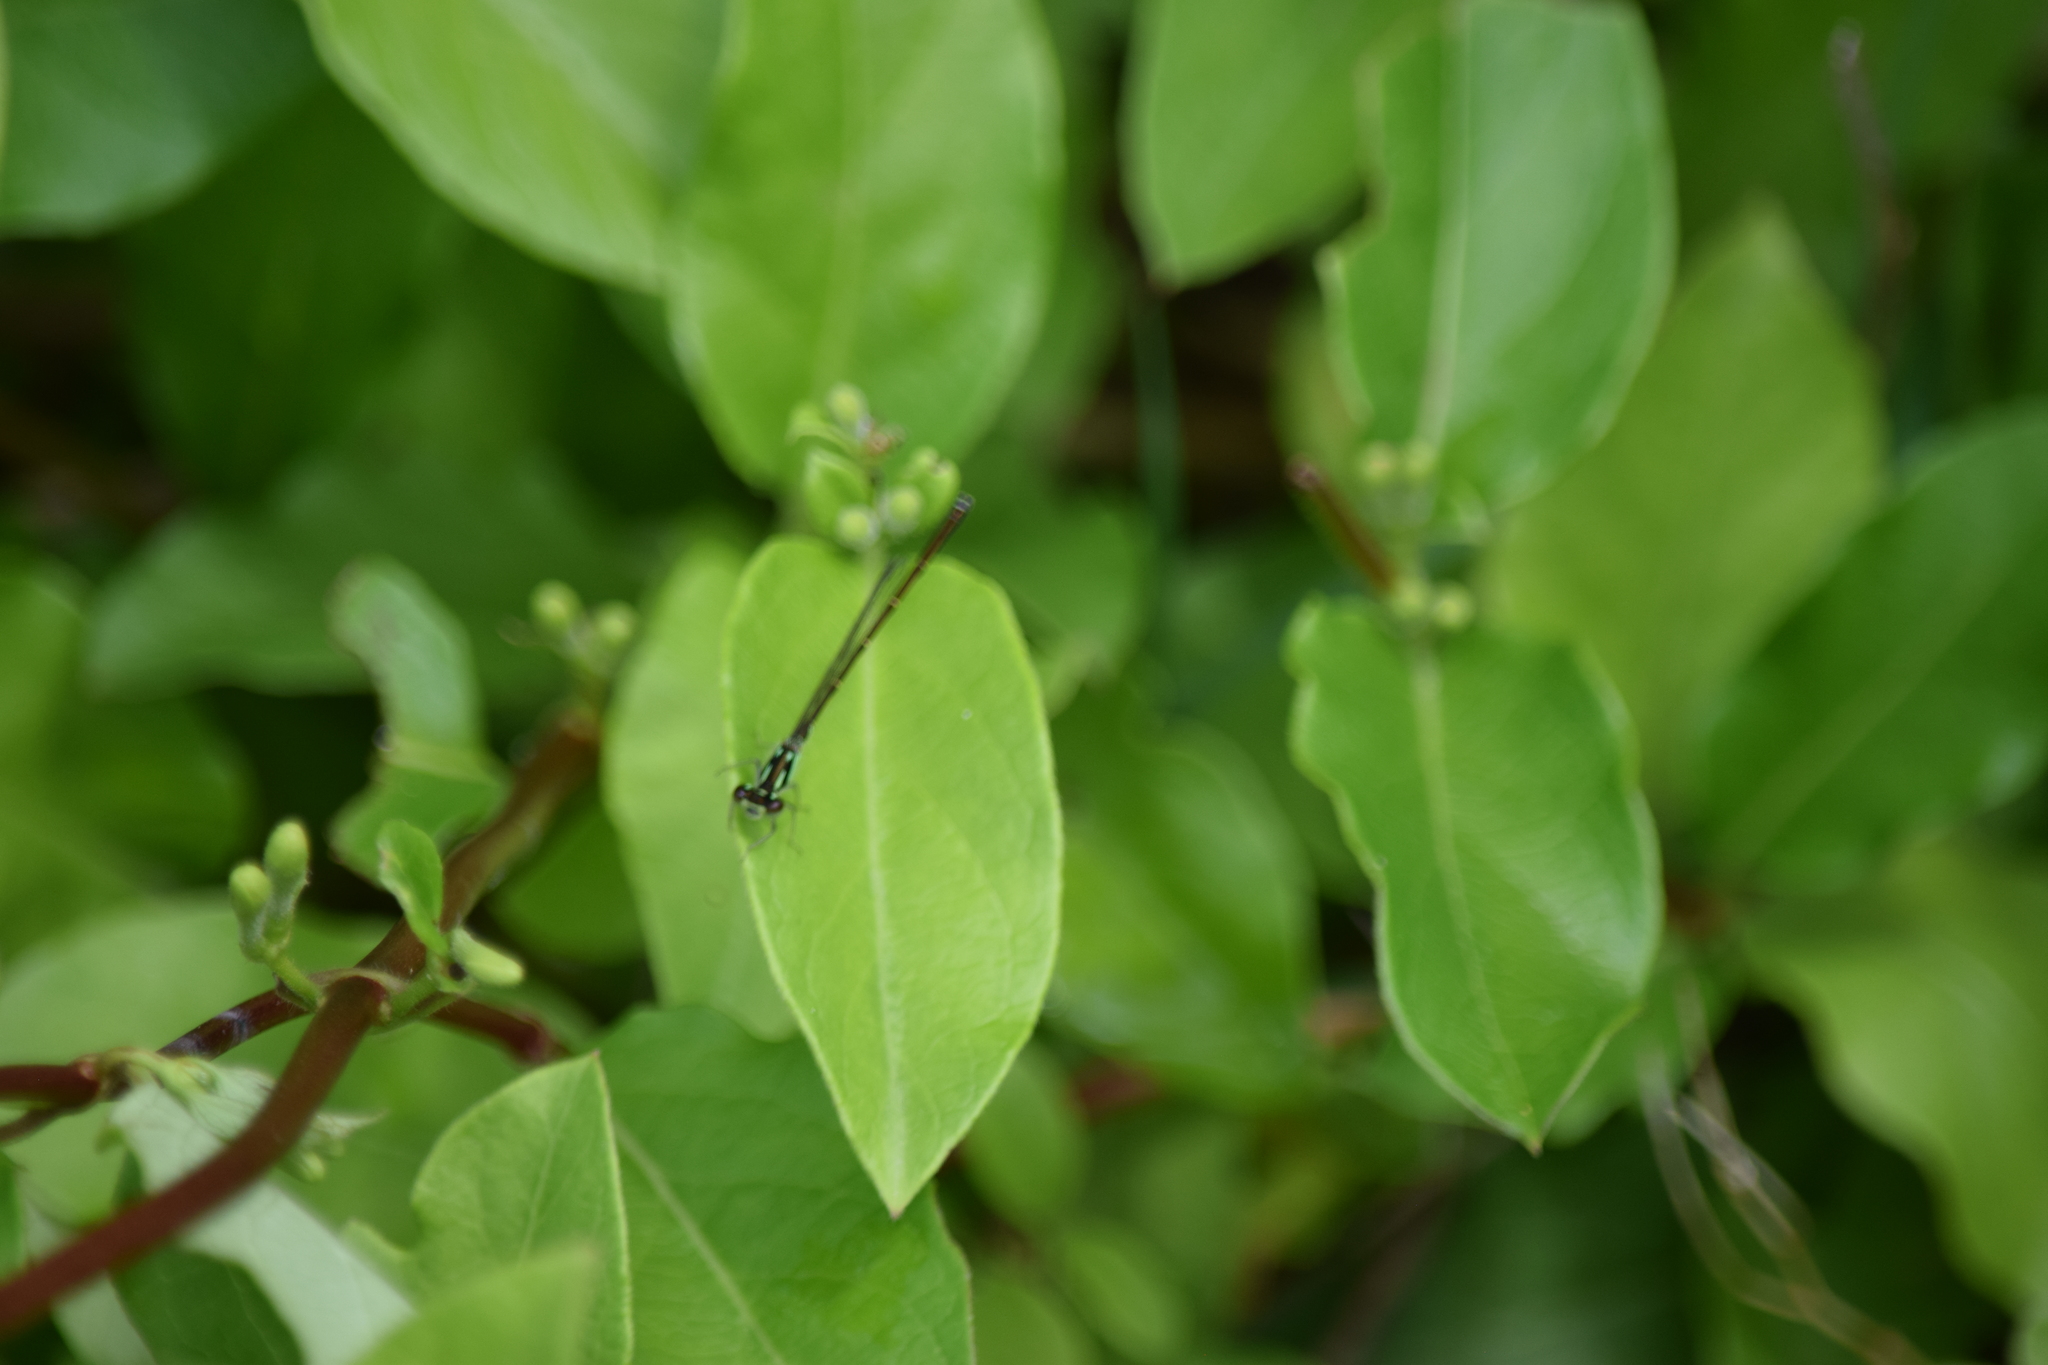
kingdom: Animalia
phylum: Arthropoda
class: Insecta
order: Odonata
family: Coenagrionidae
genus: Ischnura
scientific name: Ischnura posita
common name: Fragile forktail
